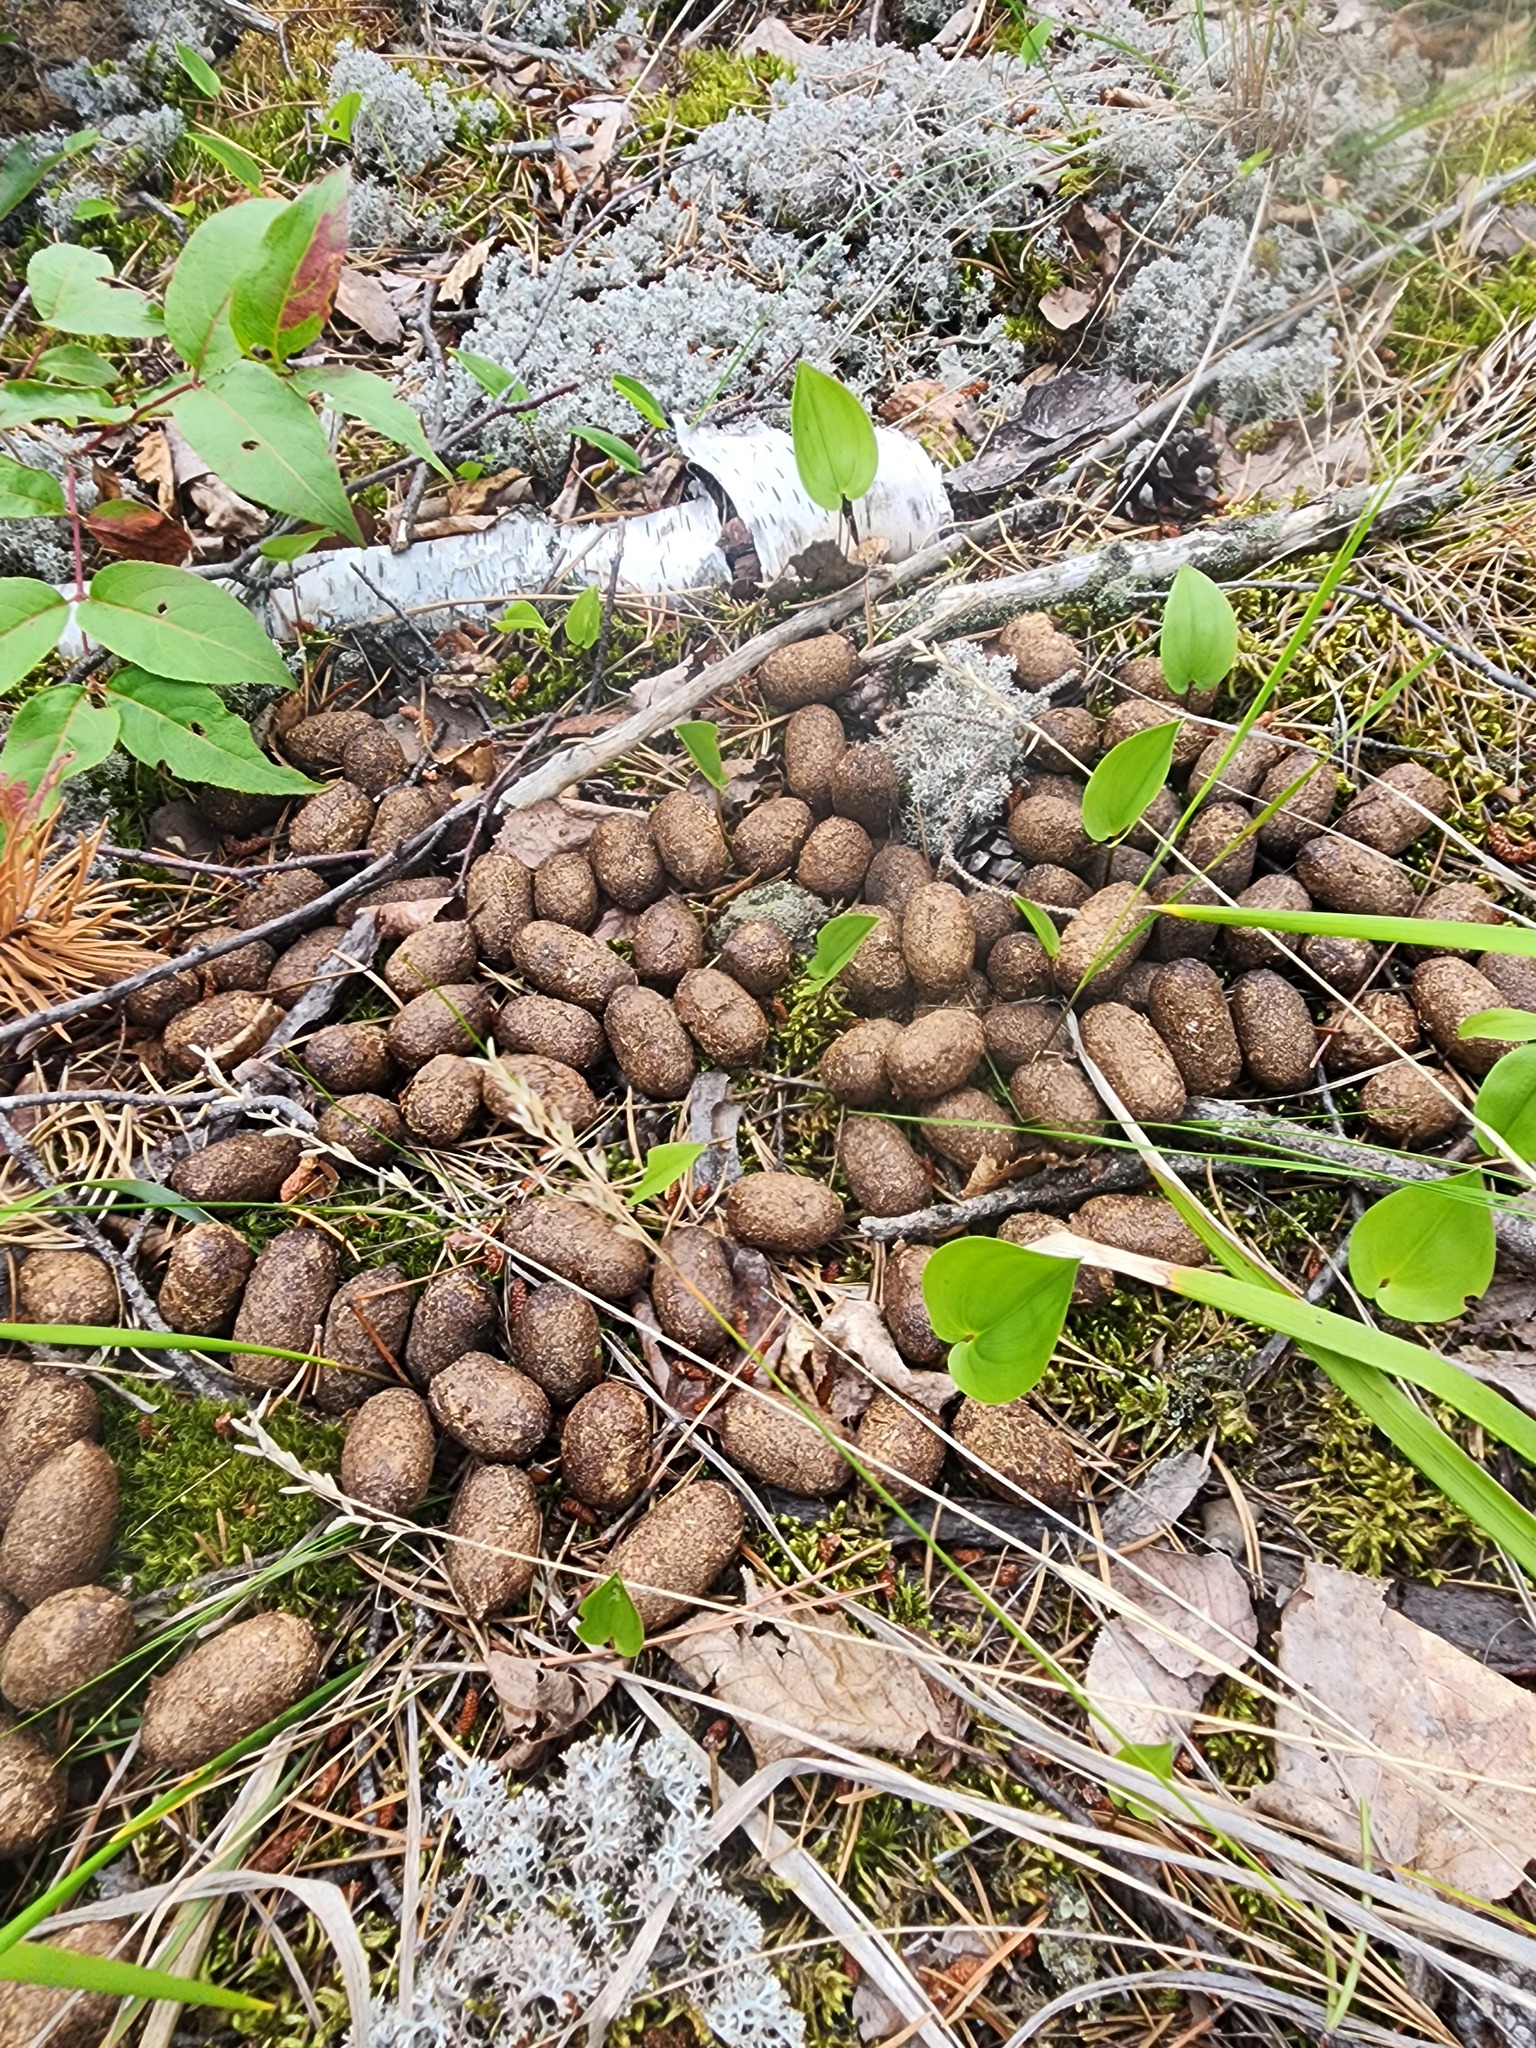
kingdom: Animalia
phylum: Chordata
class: Mammalia
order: Artiodactyla
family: Cervidae
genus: Alces
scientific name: Alces alces
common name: Moose
